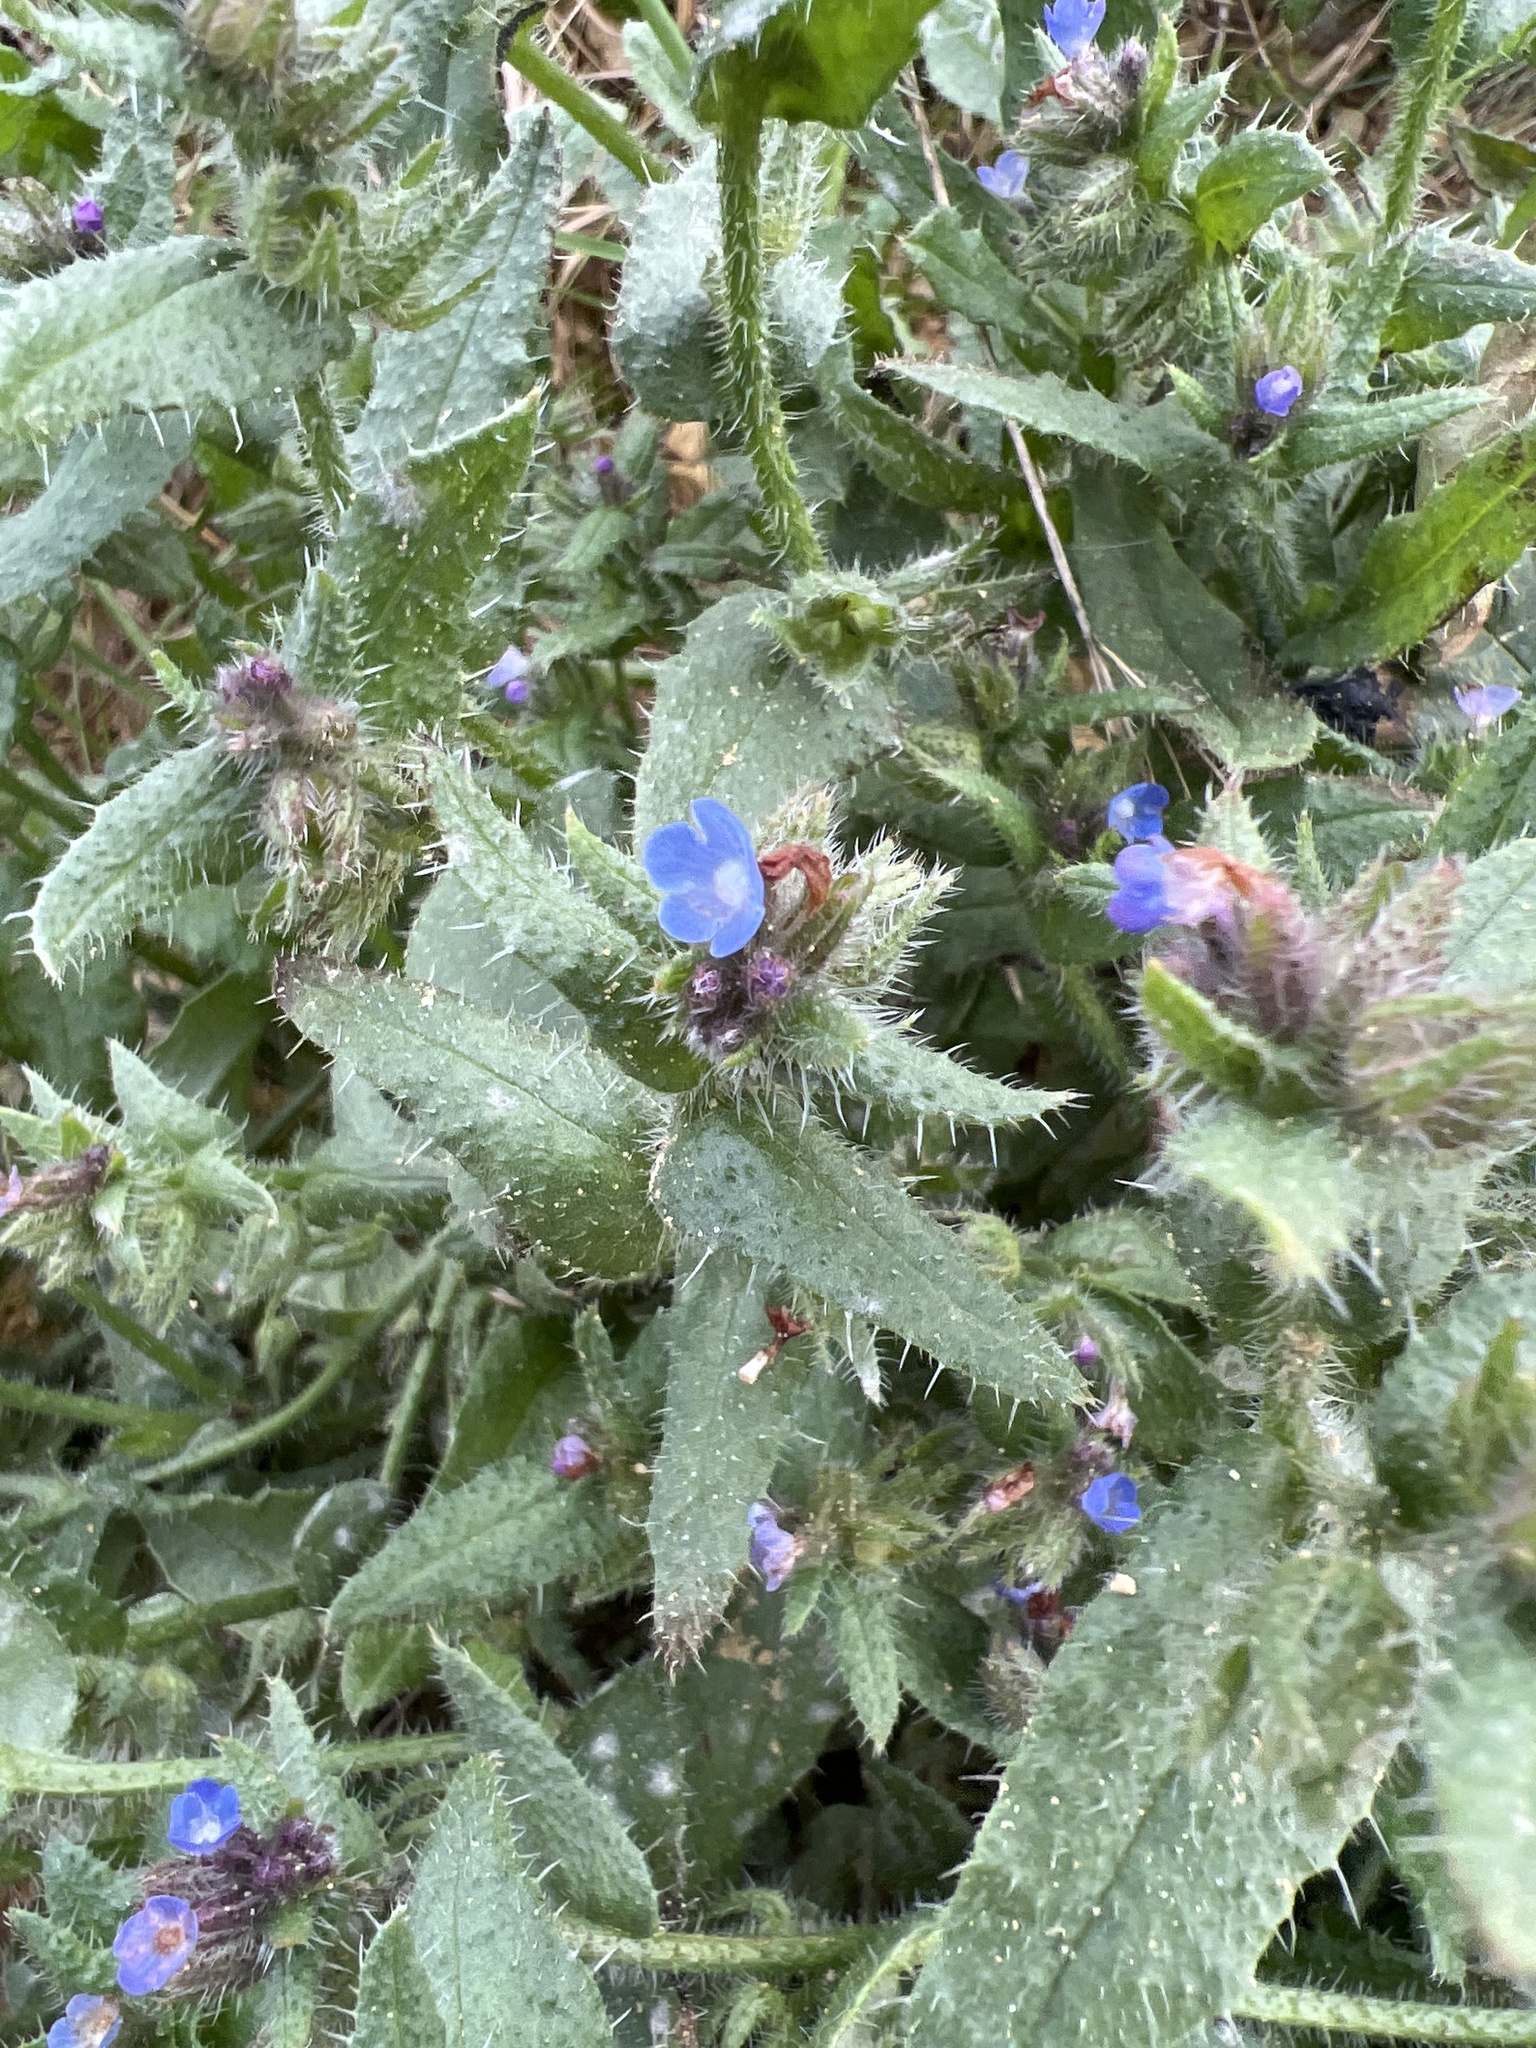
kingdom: Plantae
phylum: Tracheophyta
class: Magnoliopsida
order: Boraginales
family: Boraginaceae
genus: Lycopsis
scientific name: Lycopsis arvensis
